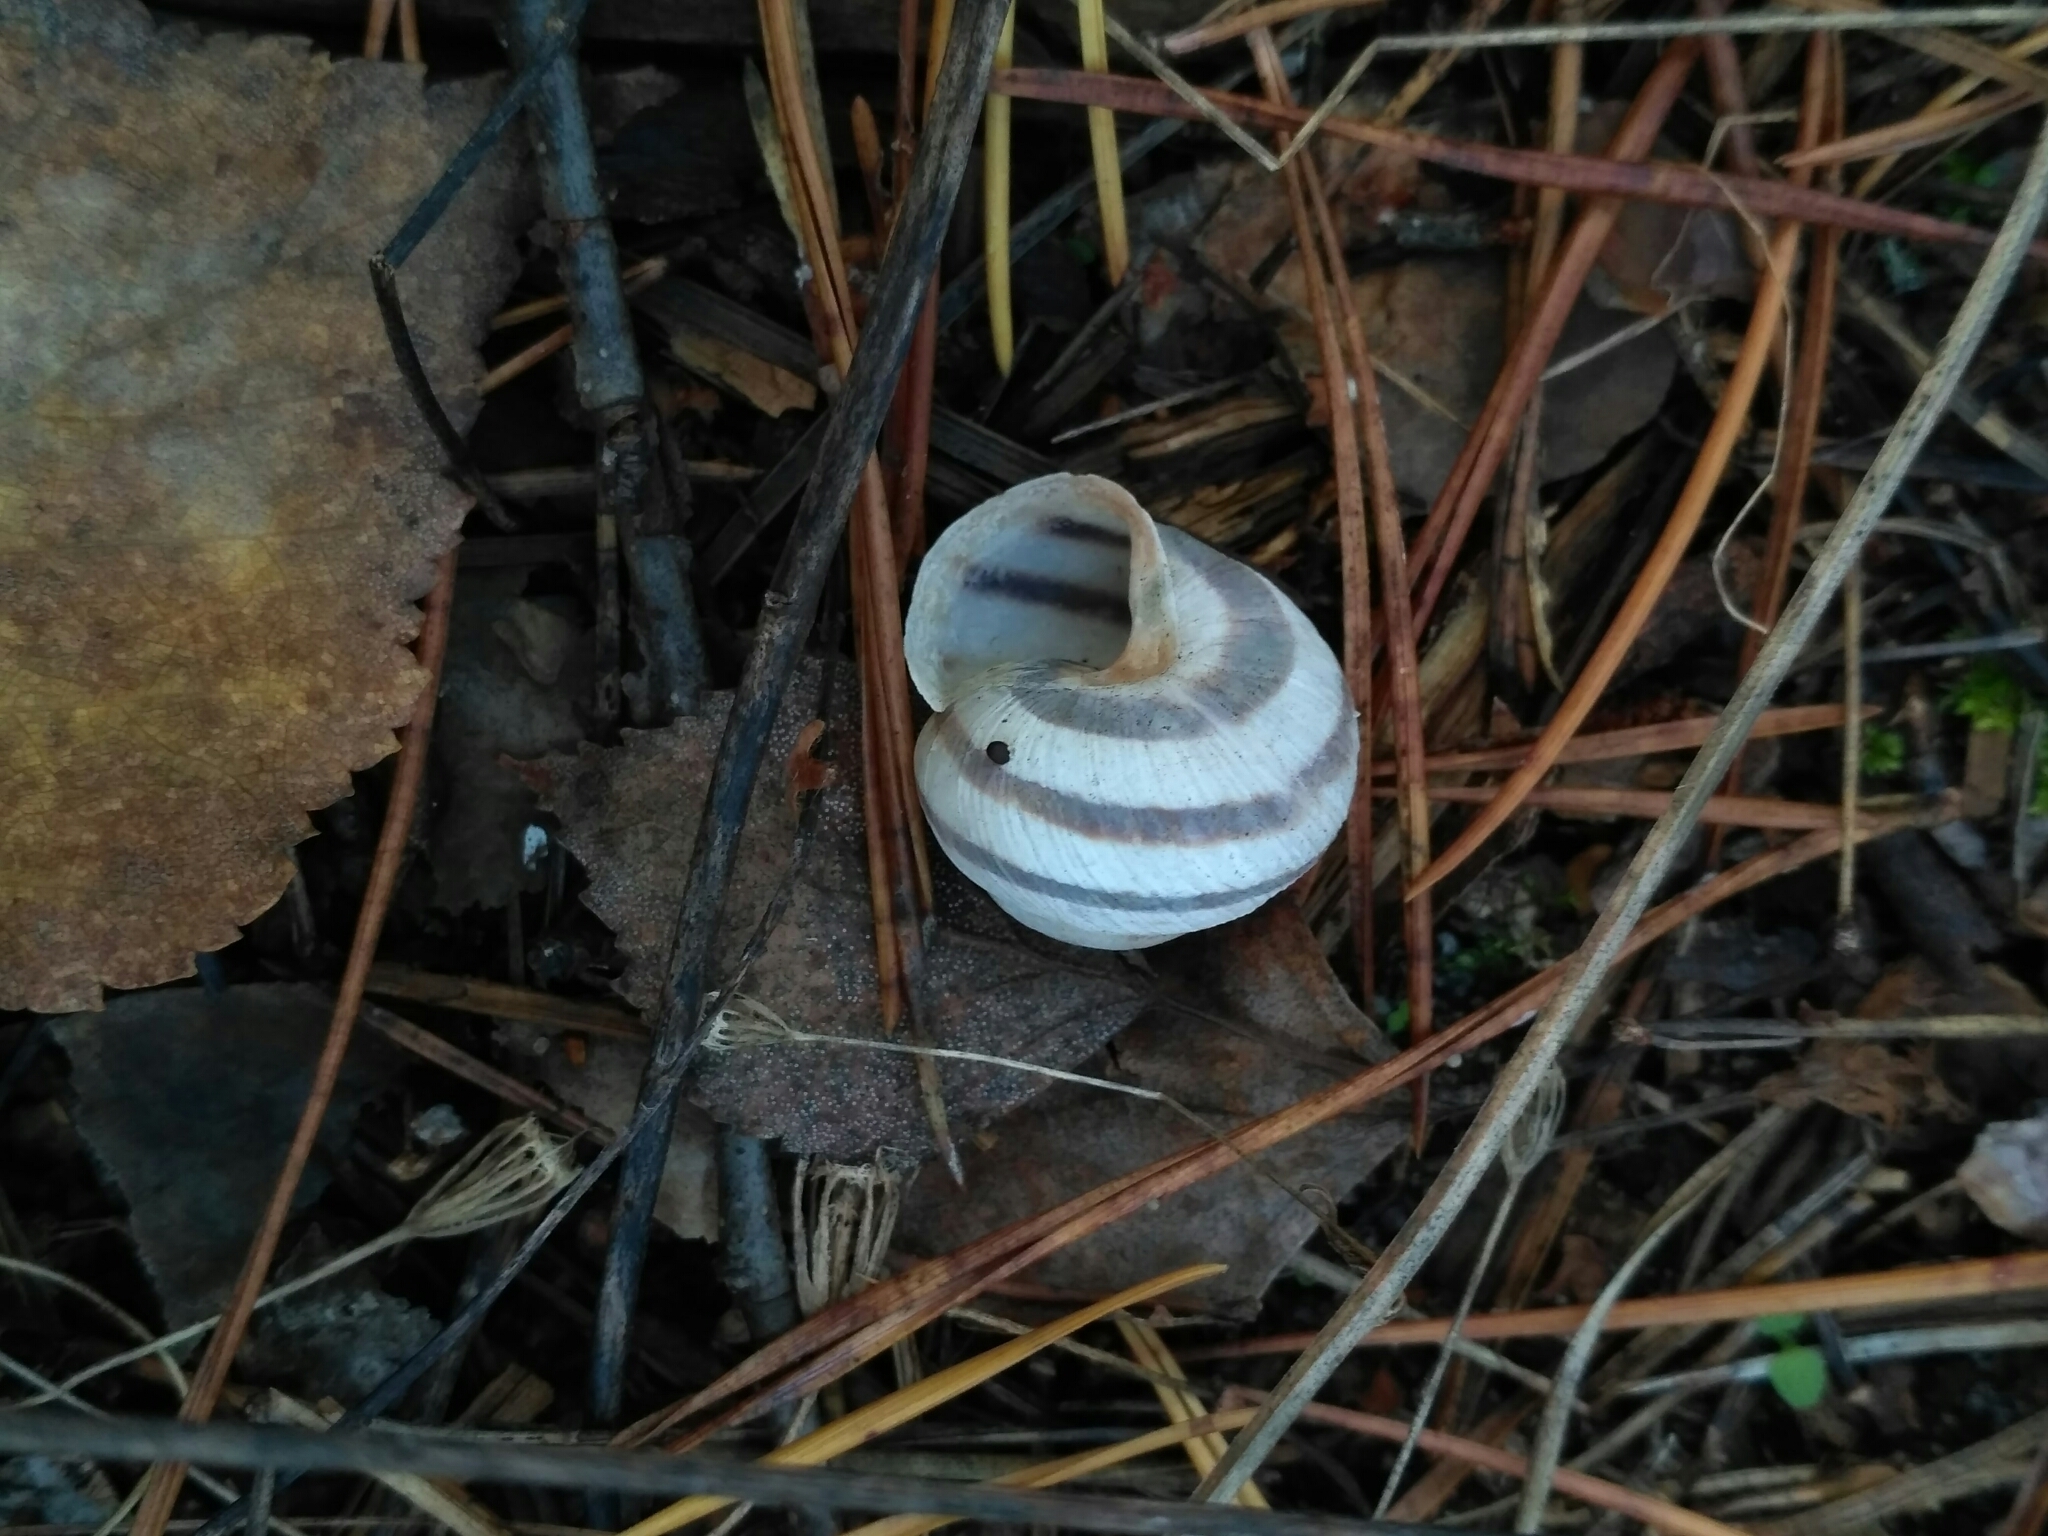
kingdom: Animalia
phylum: Mollusca
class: Gastropoda
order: Stylommatophora
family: Helicidae
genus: Caucasotachea
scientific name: Caucasotachea vindobonensis
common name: European helicid land snail
